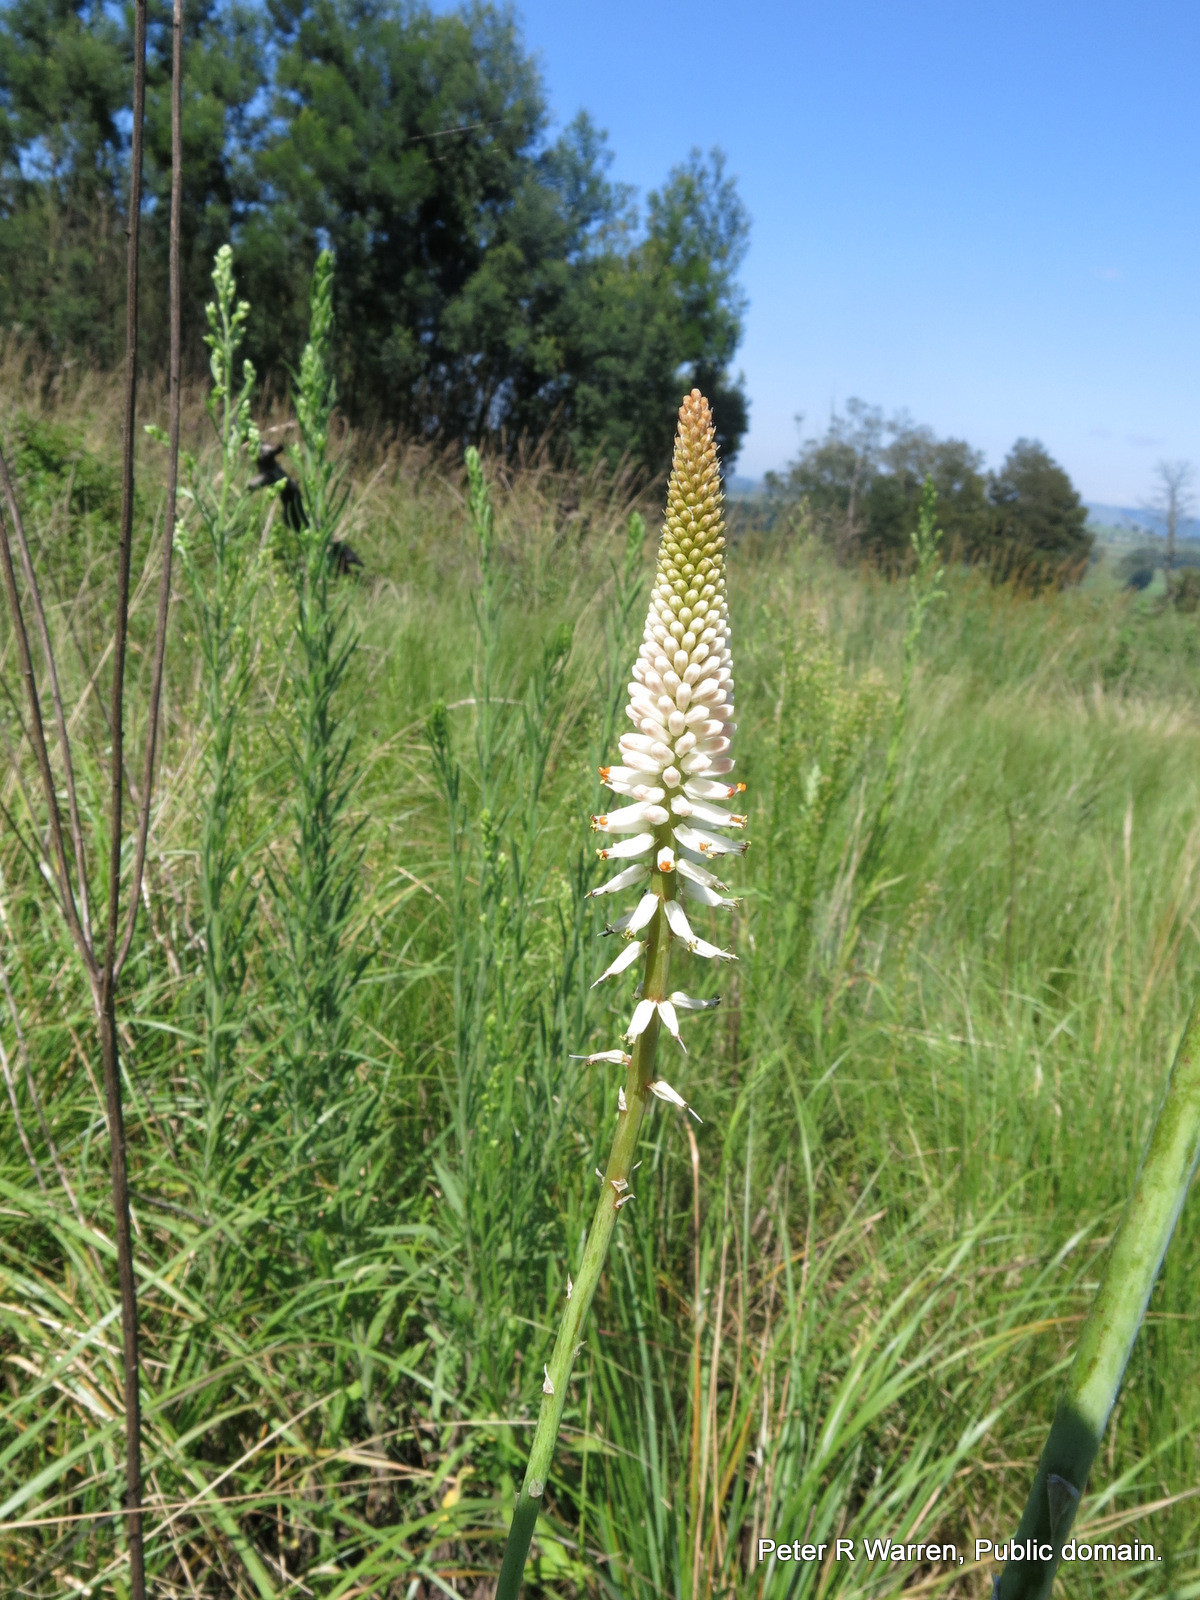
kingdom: Plantae
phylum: Tracheophyta
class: Liliopsida
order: Asparagales
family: Asphodelaceae
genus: Kniphofia
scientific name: Kniphofia buchananii
